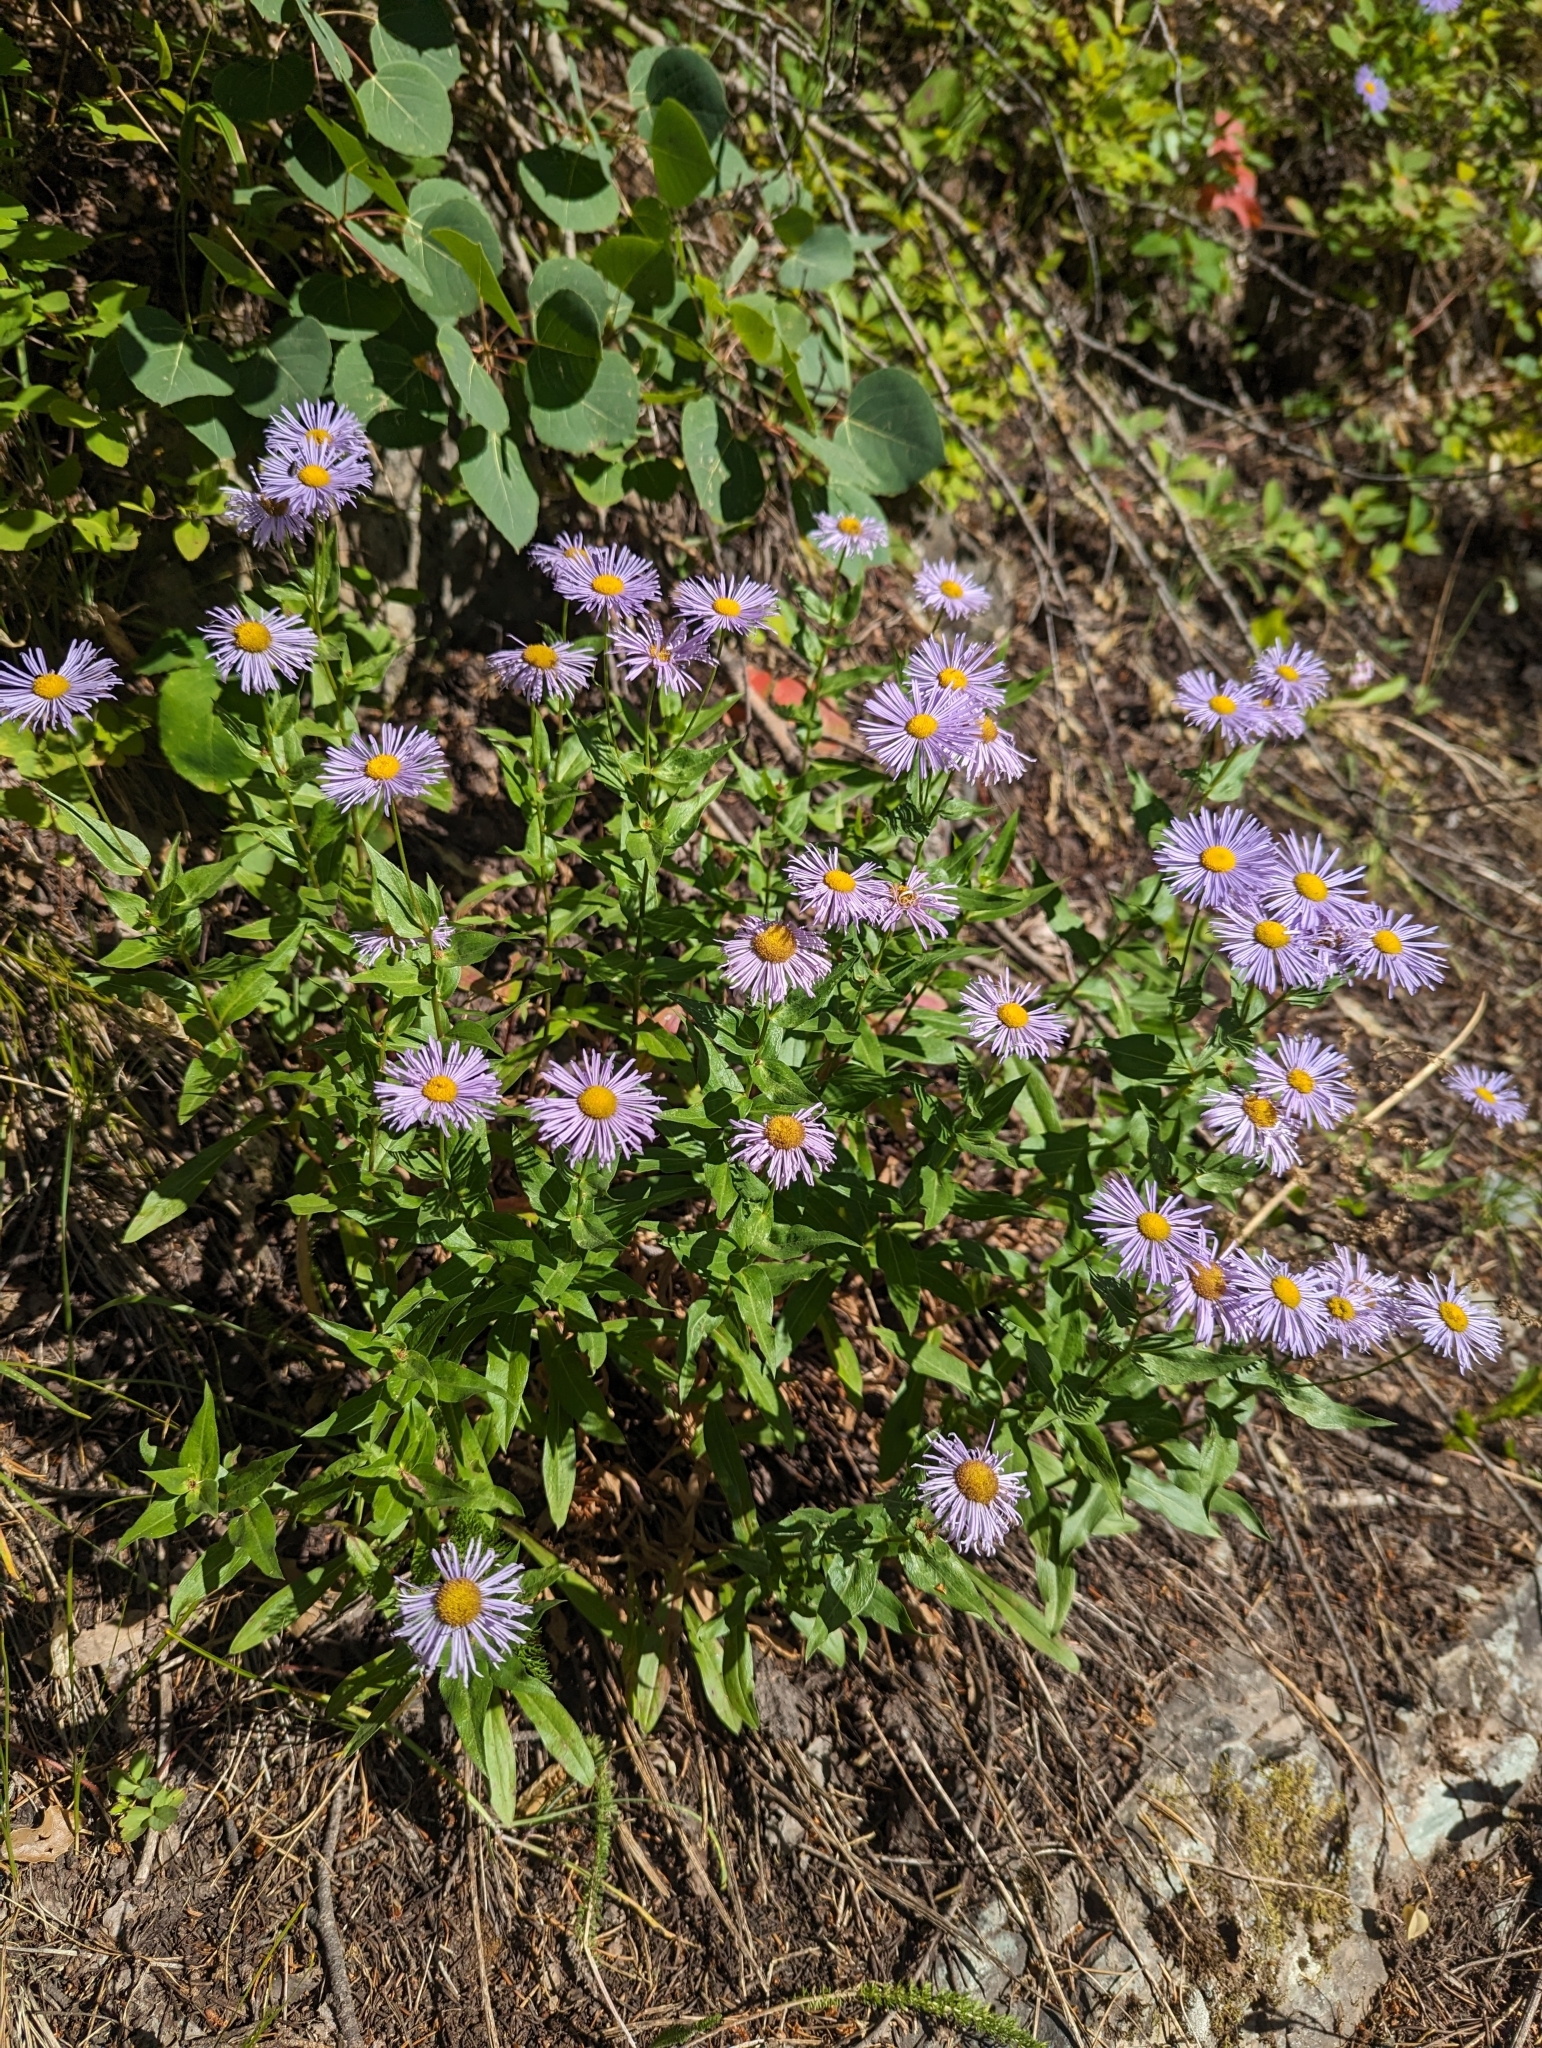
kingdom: Plantae
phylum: Tracheophyta
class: Magnoliopsida
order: Asterales
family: Asteraceae
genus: Erigeron
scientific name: Erigeron speciosus
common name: Aspen fleabane
